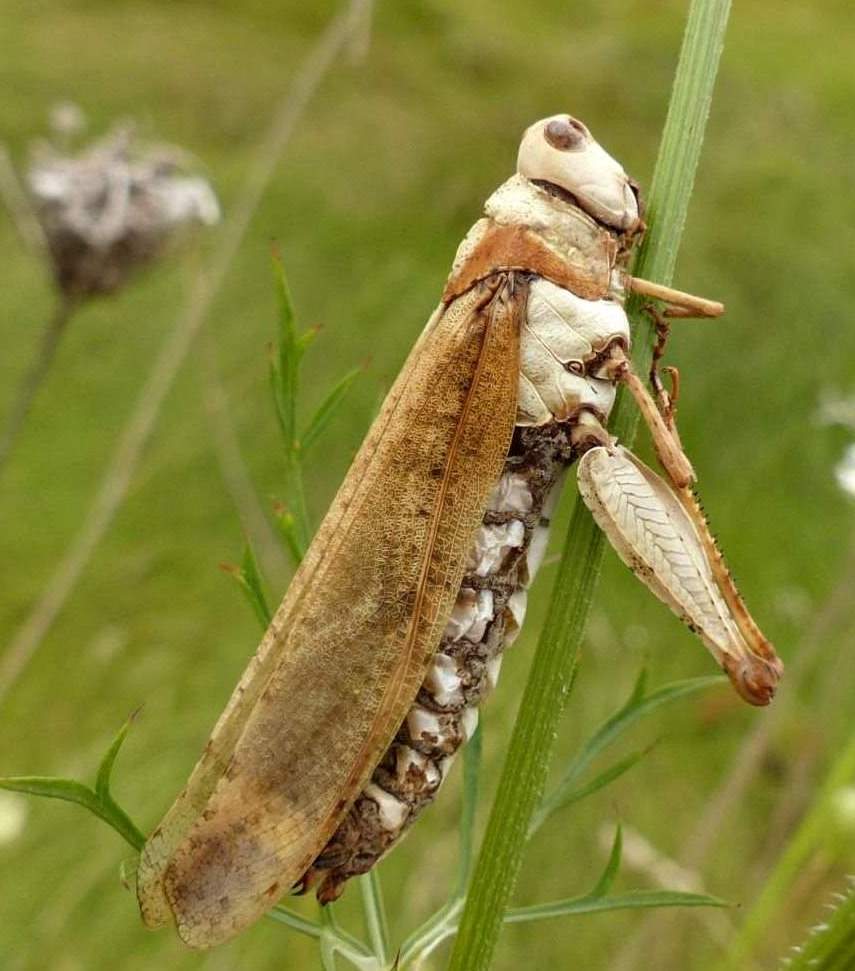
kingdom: Animalia
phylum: Arthropoda
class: Insecta
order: Orthoptera
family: Acrididae
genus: Dissosteira
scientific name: Dissosteira carolina
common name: Carolina grasshopper
